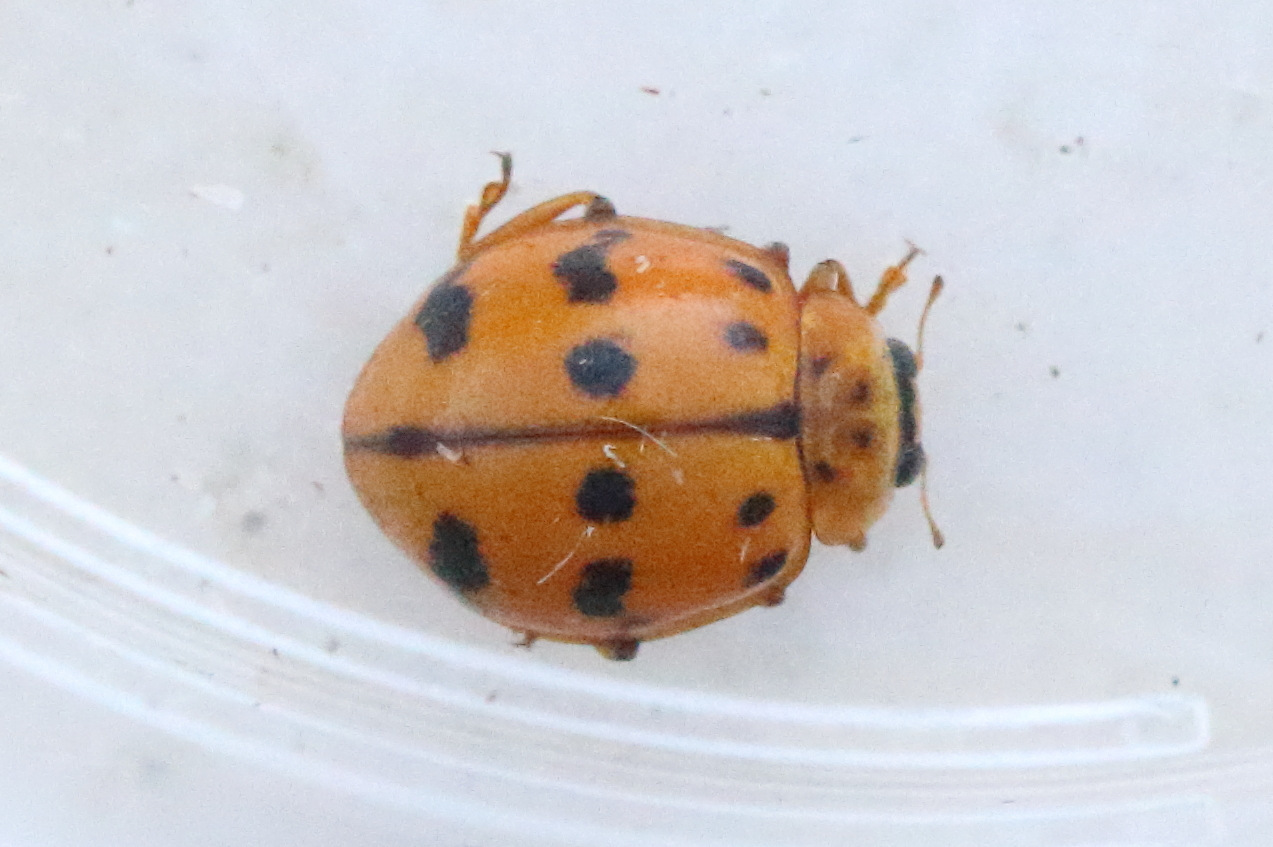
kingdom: Animalia
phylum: Arthropoda
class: Insecta
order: Coleoptera
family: Coccinellidae
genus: Harmonia
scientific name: Harmonia octomaculata
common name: Lady beetle
